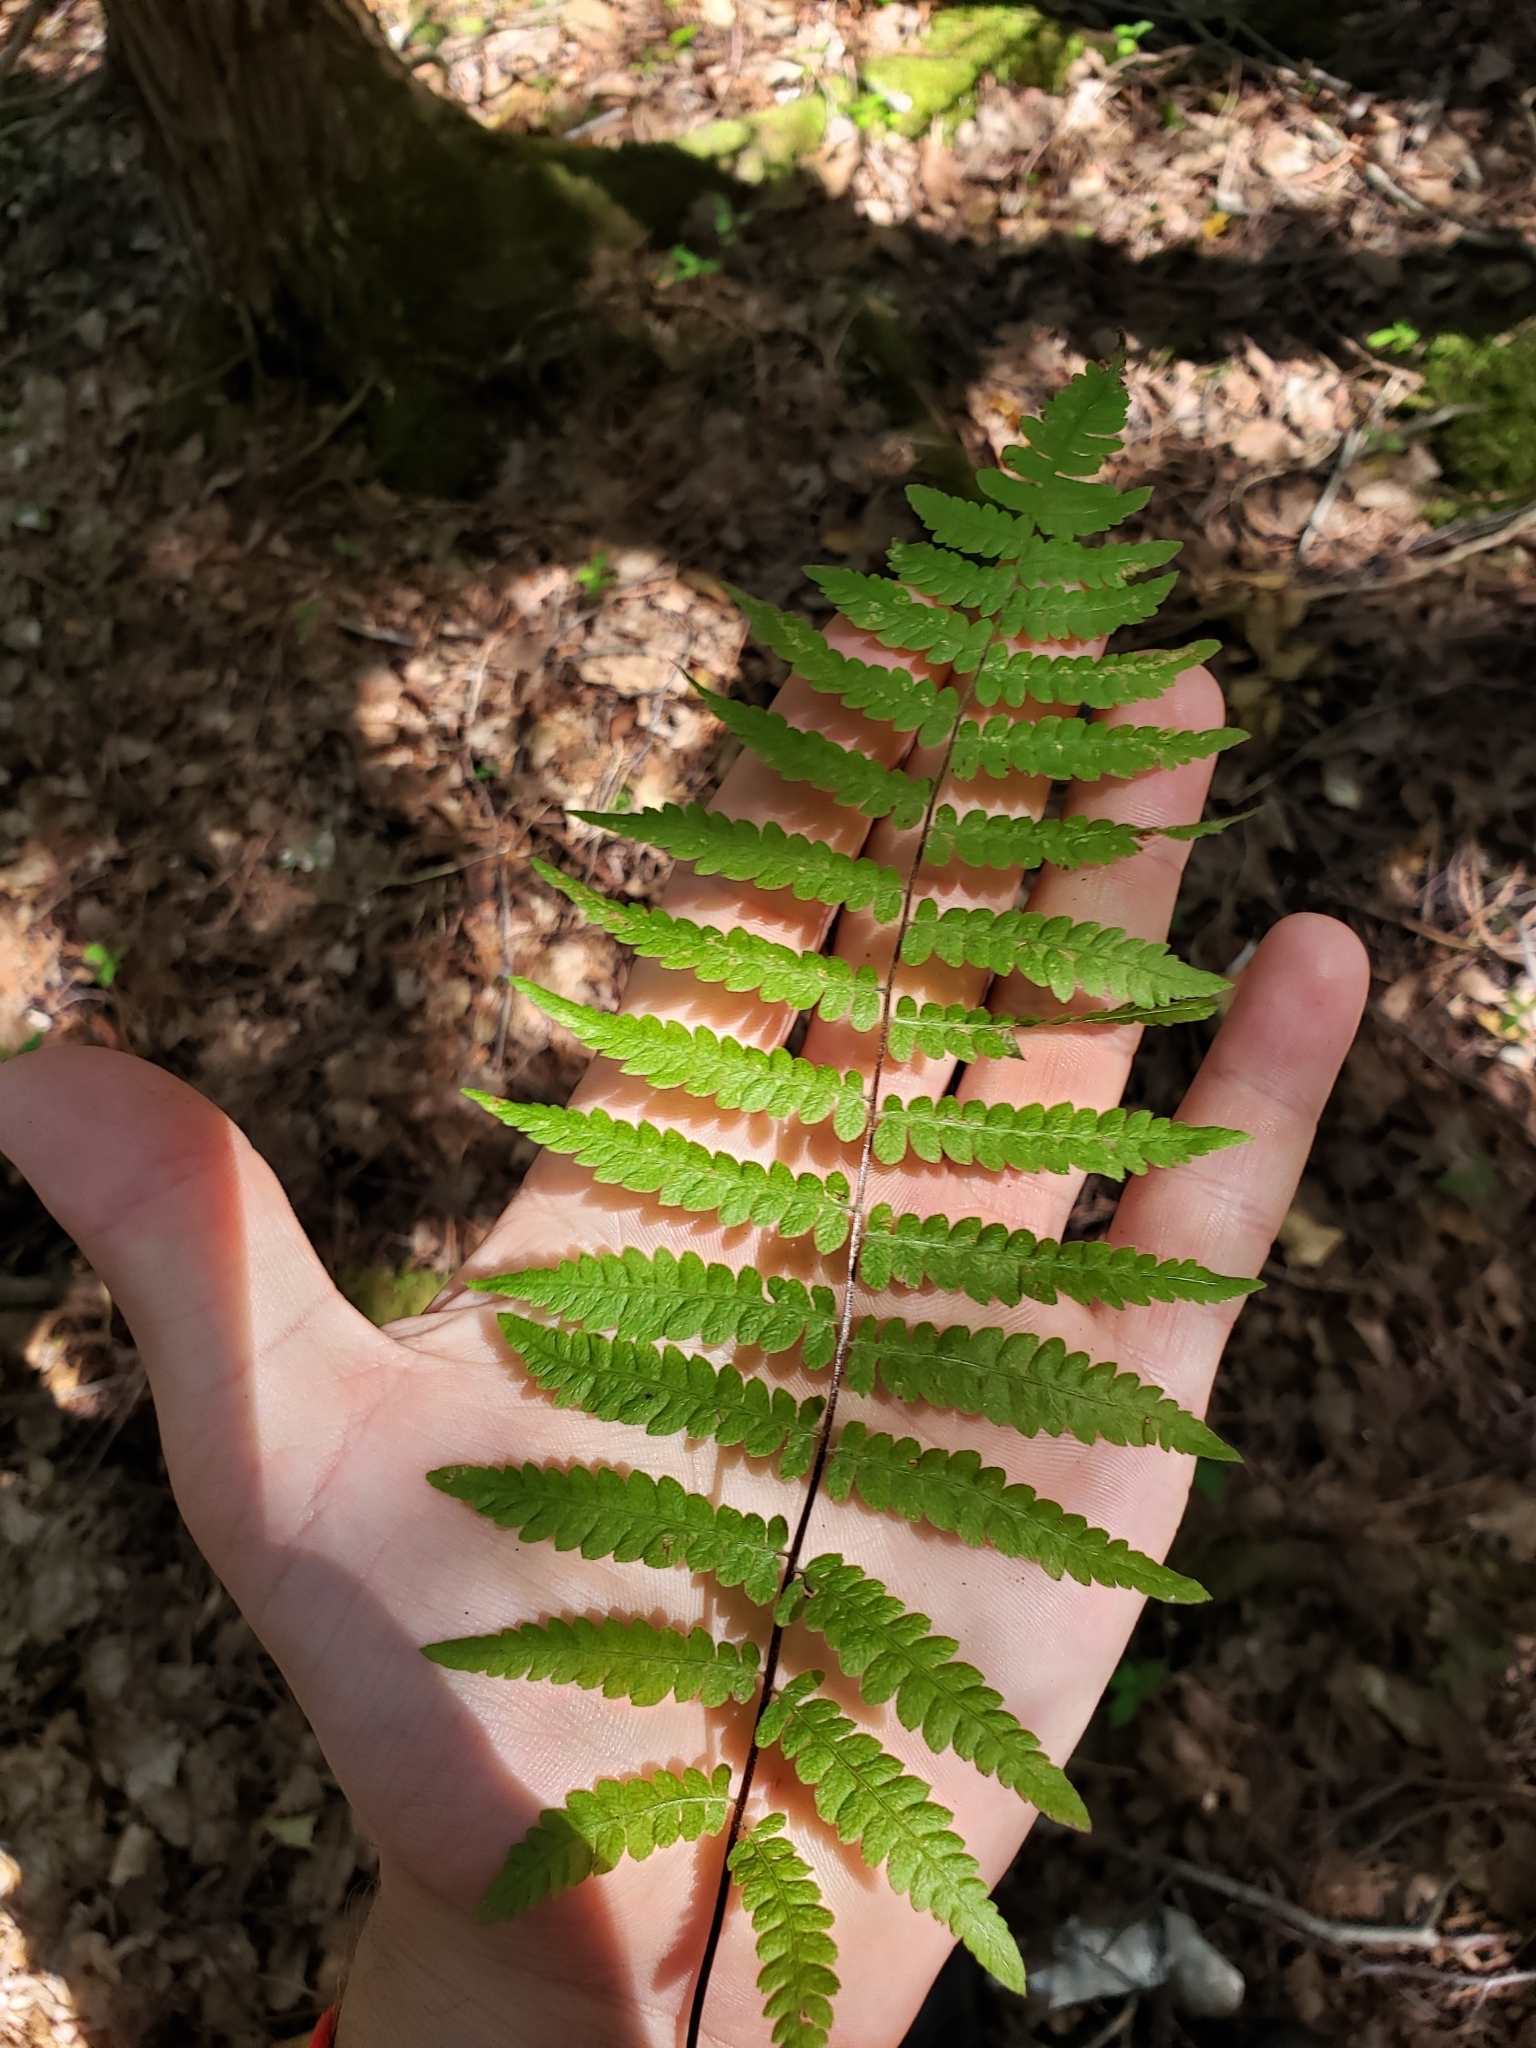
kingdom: Plantae
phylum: Tracheophyta
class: Polypodiopsida
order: Polypodiales
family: Thelypteridaceae
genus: Thelypteris
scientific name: Thelypteris palustris
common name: Marsh fern
